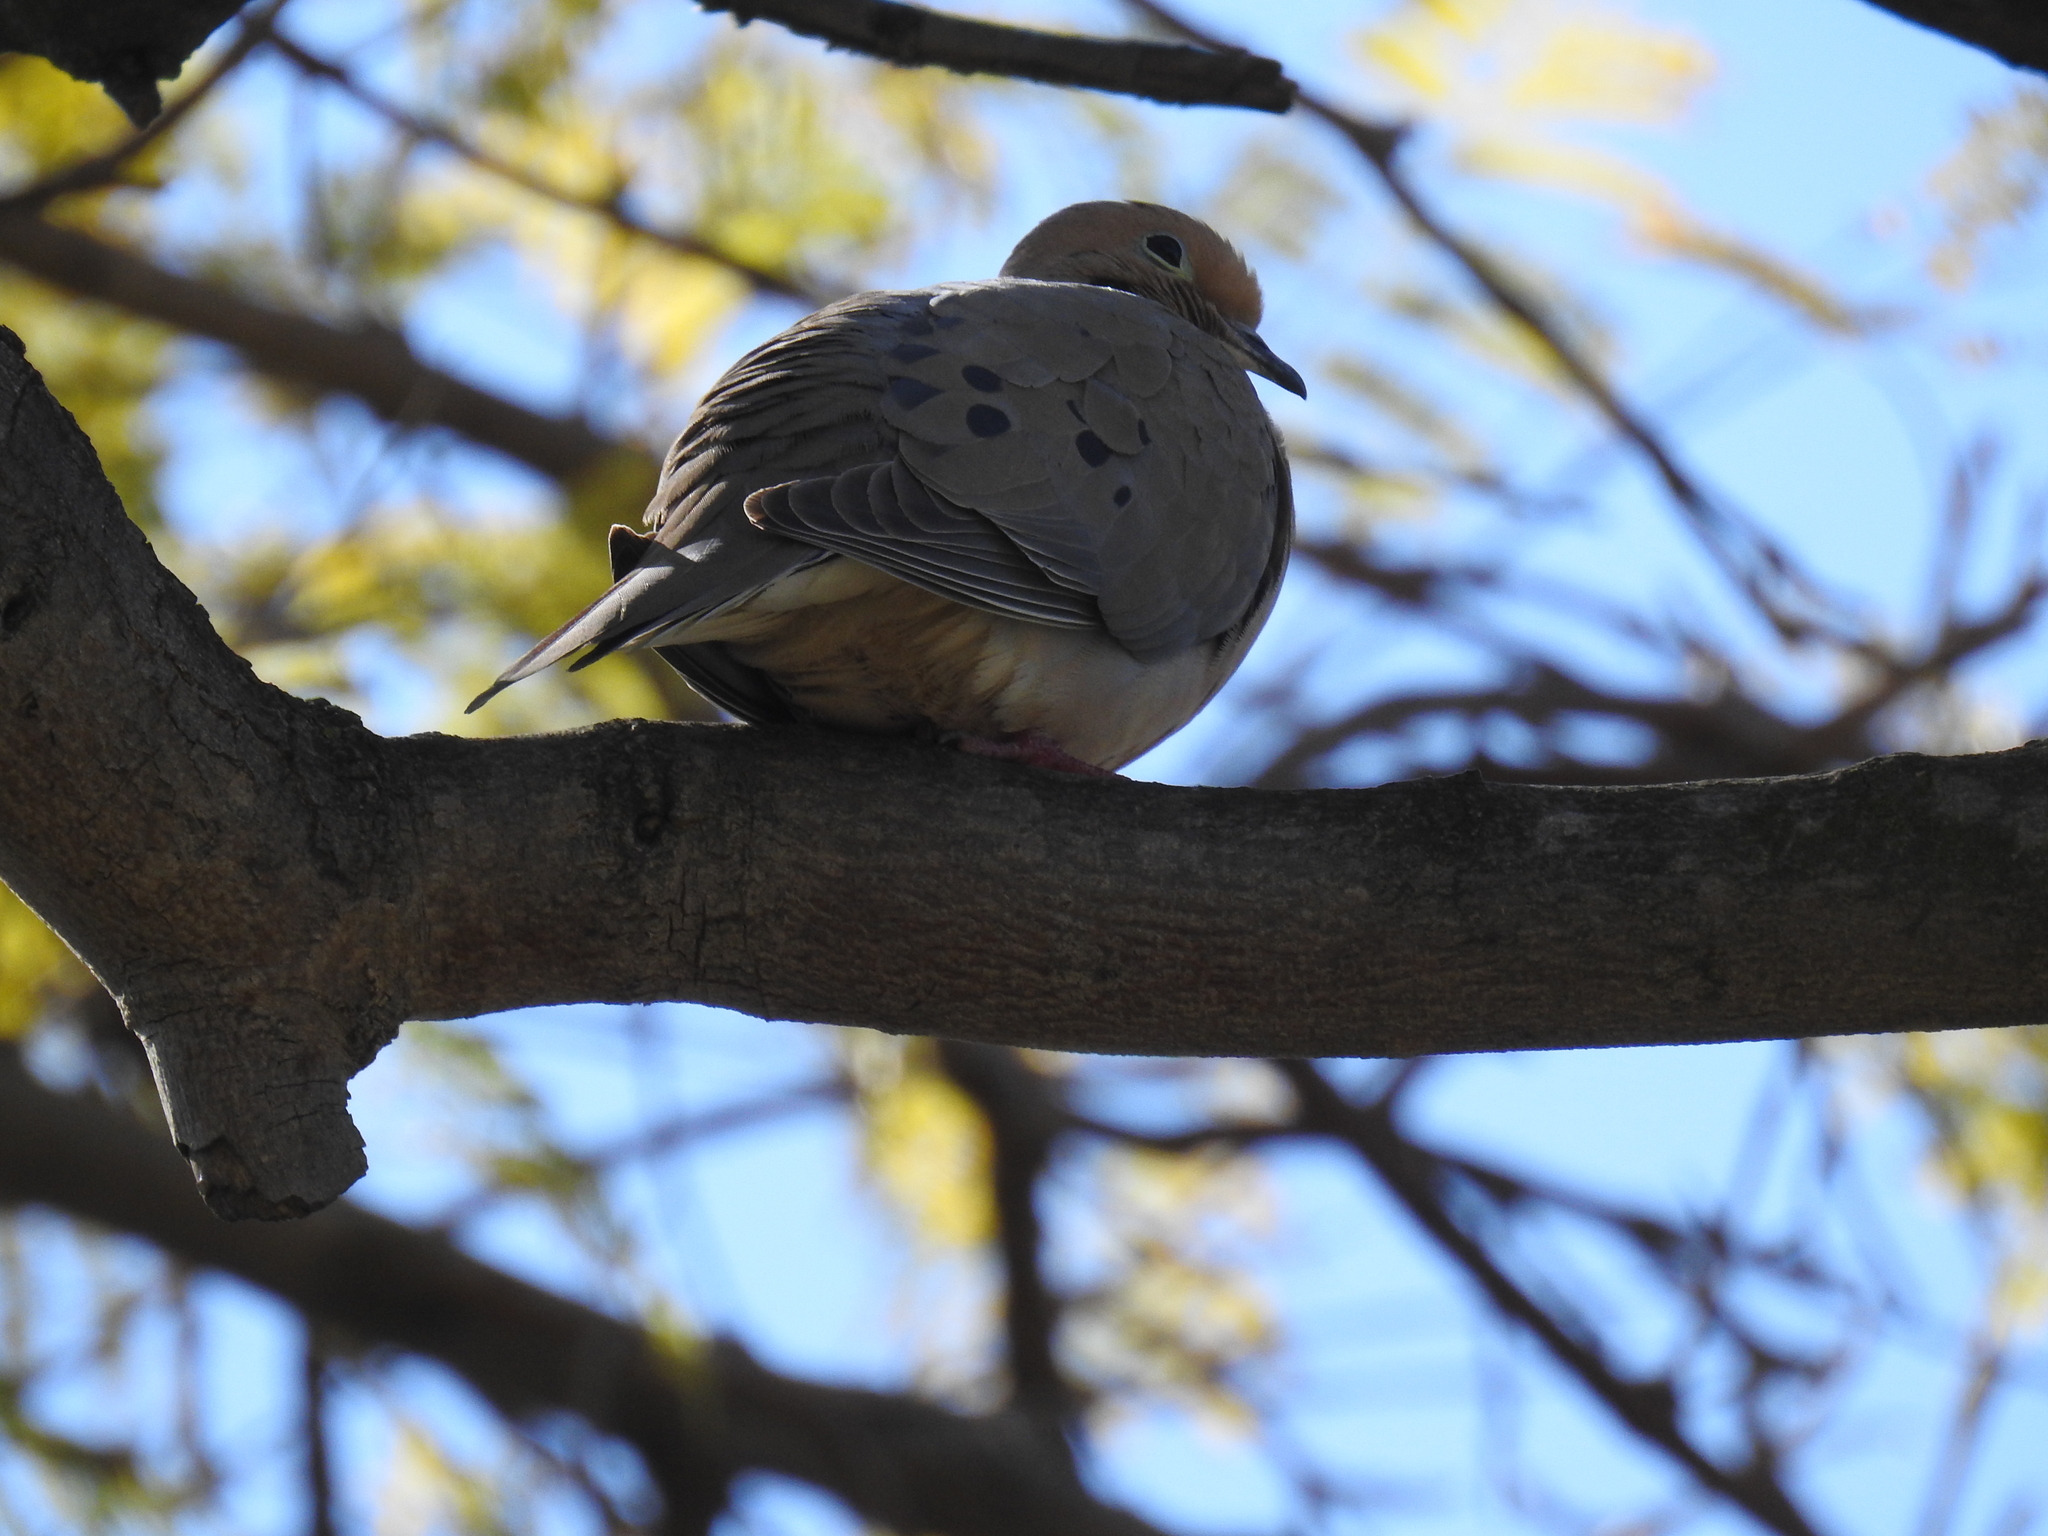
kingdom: Animalia
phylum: Chordata
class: Aves
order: Columbiformes
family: Columbidae
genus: Zenaida
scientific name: Zenaida macroura
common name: Mourning dove
